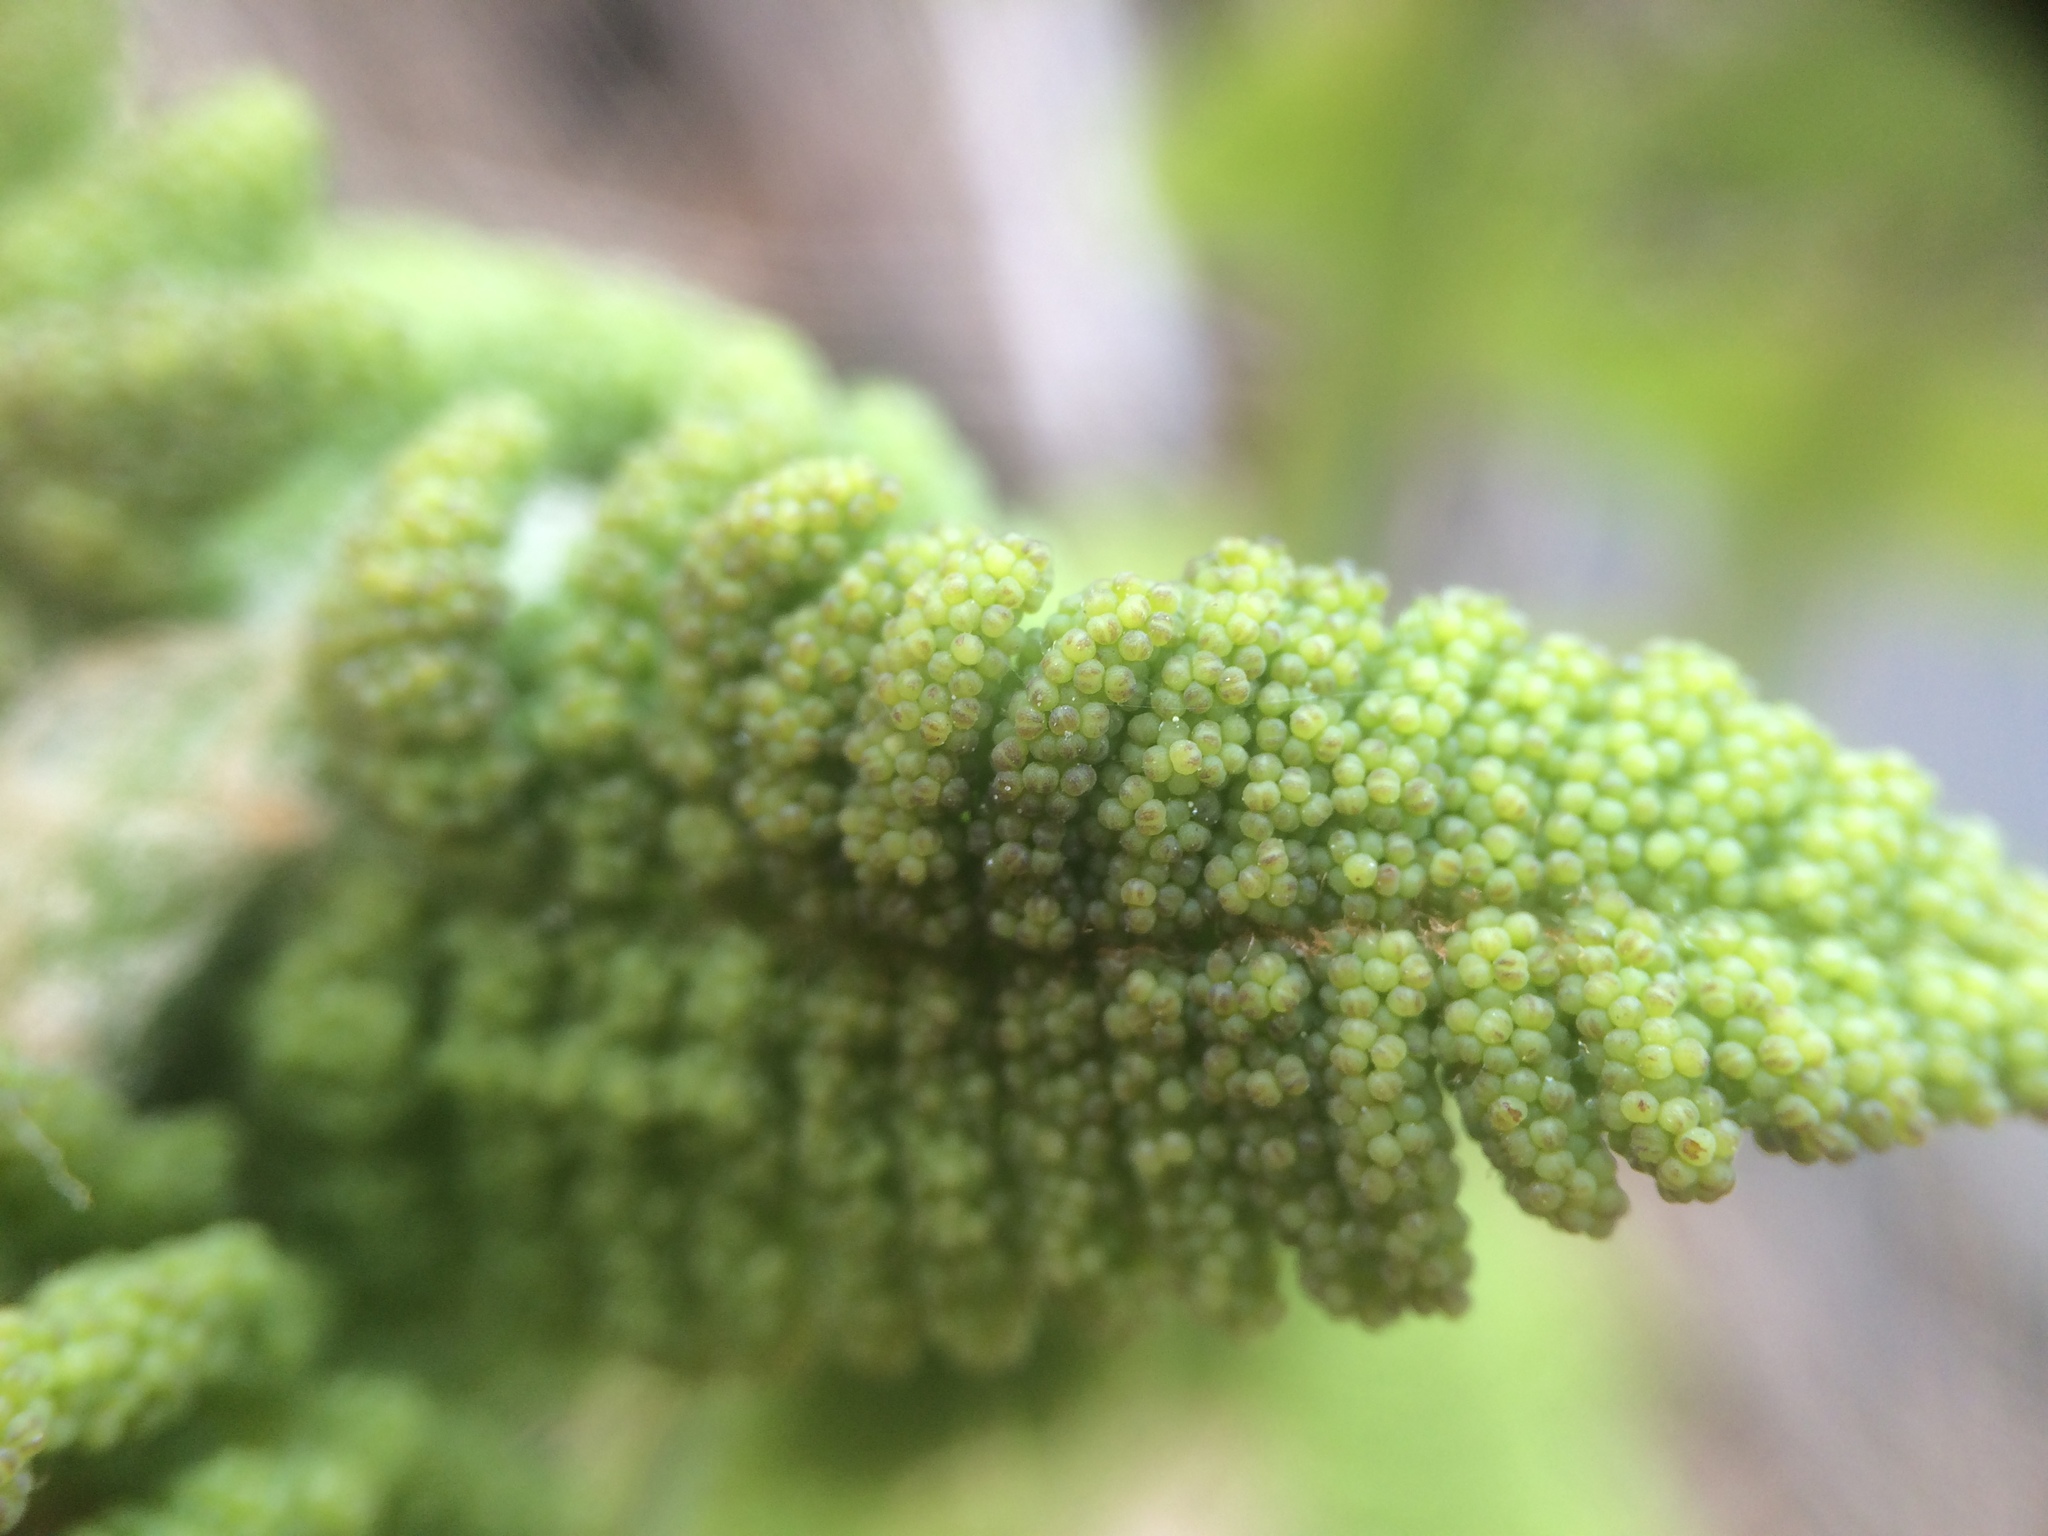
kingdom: Plantae
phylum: Tracheophyta
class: Polypodiopsida
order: Osmundales
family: Osmundaceae
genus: Claytosmunda
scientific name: Claytosmunda claytoniana
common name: Clayton's fern
